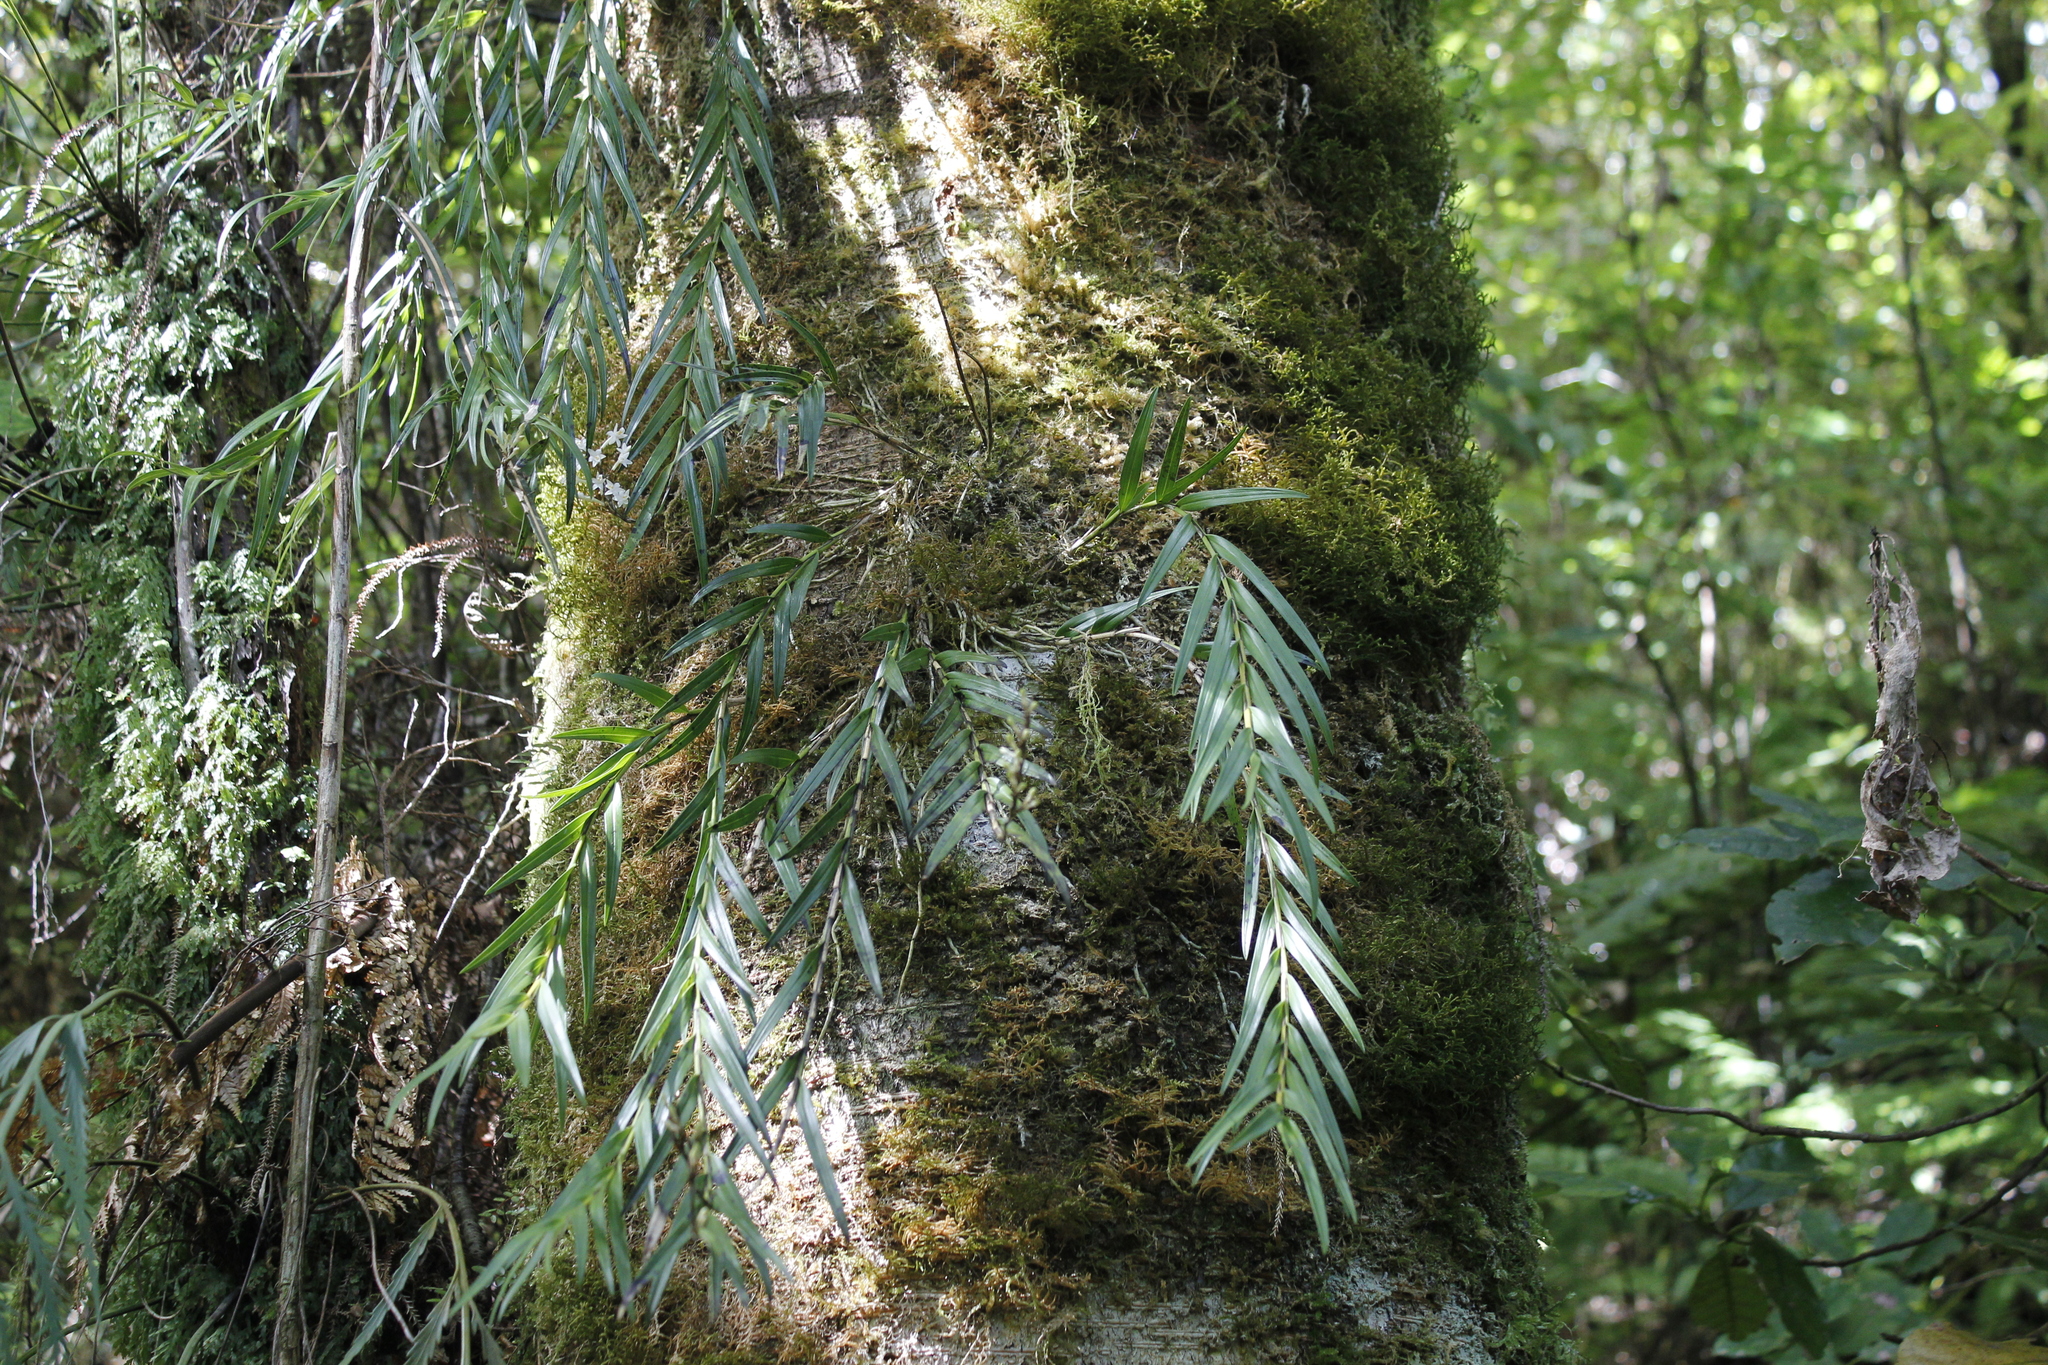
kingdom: Plantae
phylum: Tracheophyta
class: Liliopsida
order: Asparagales
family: Orchidaceae
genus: Earina
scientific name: Earina autumnalis
